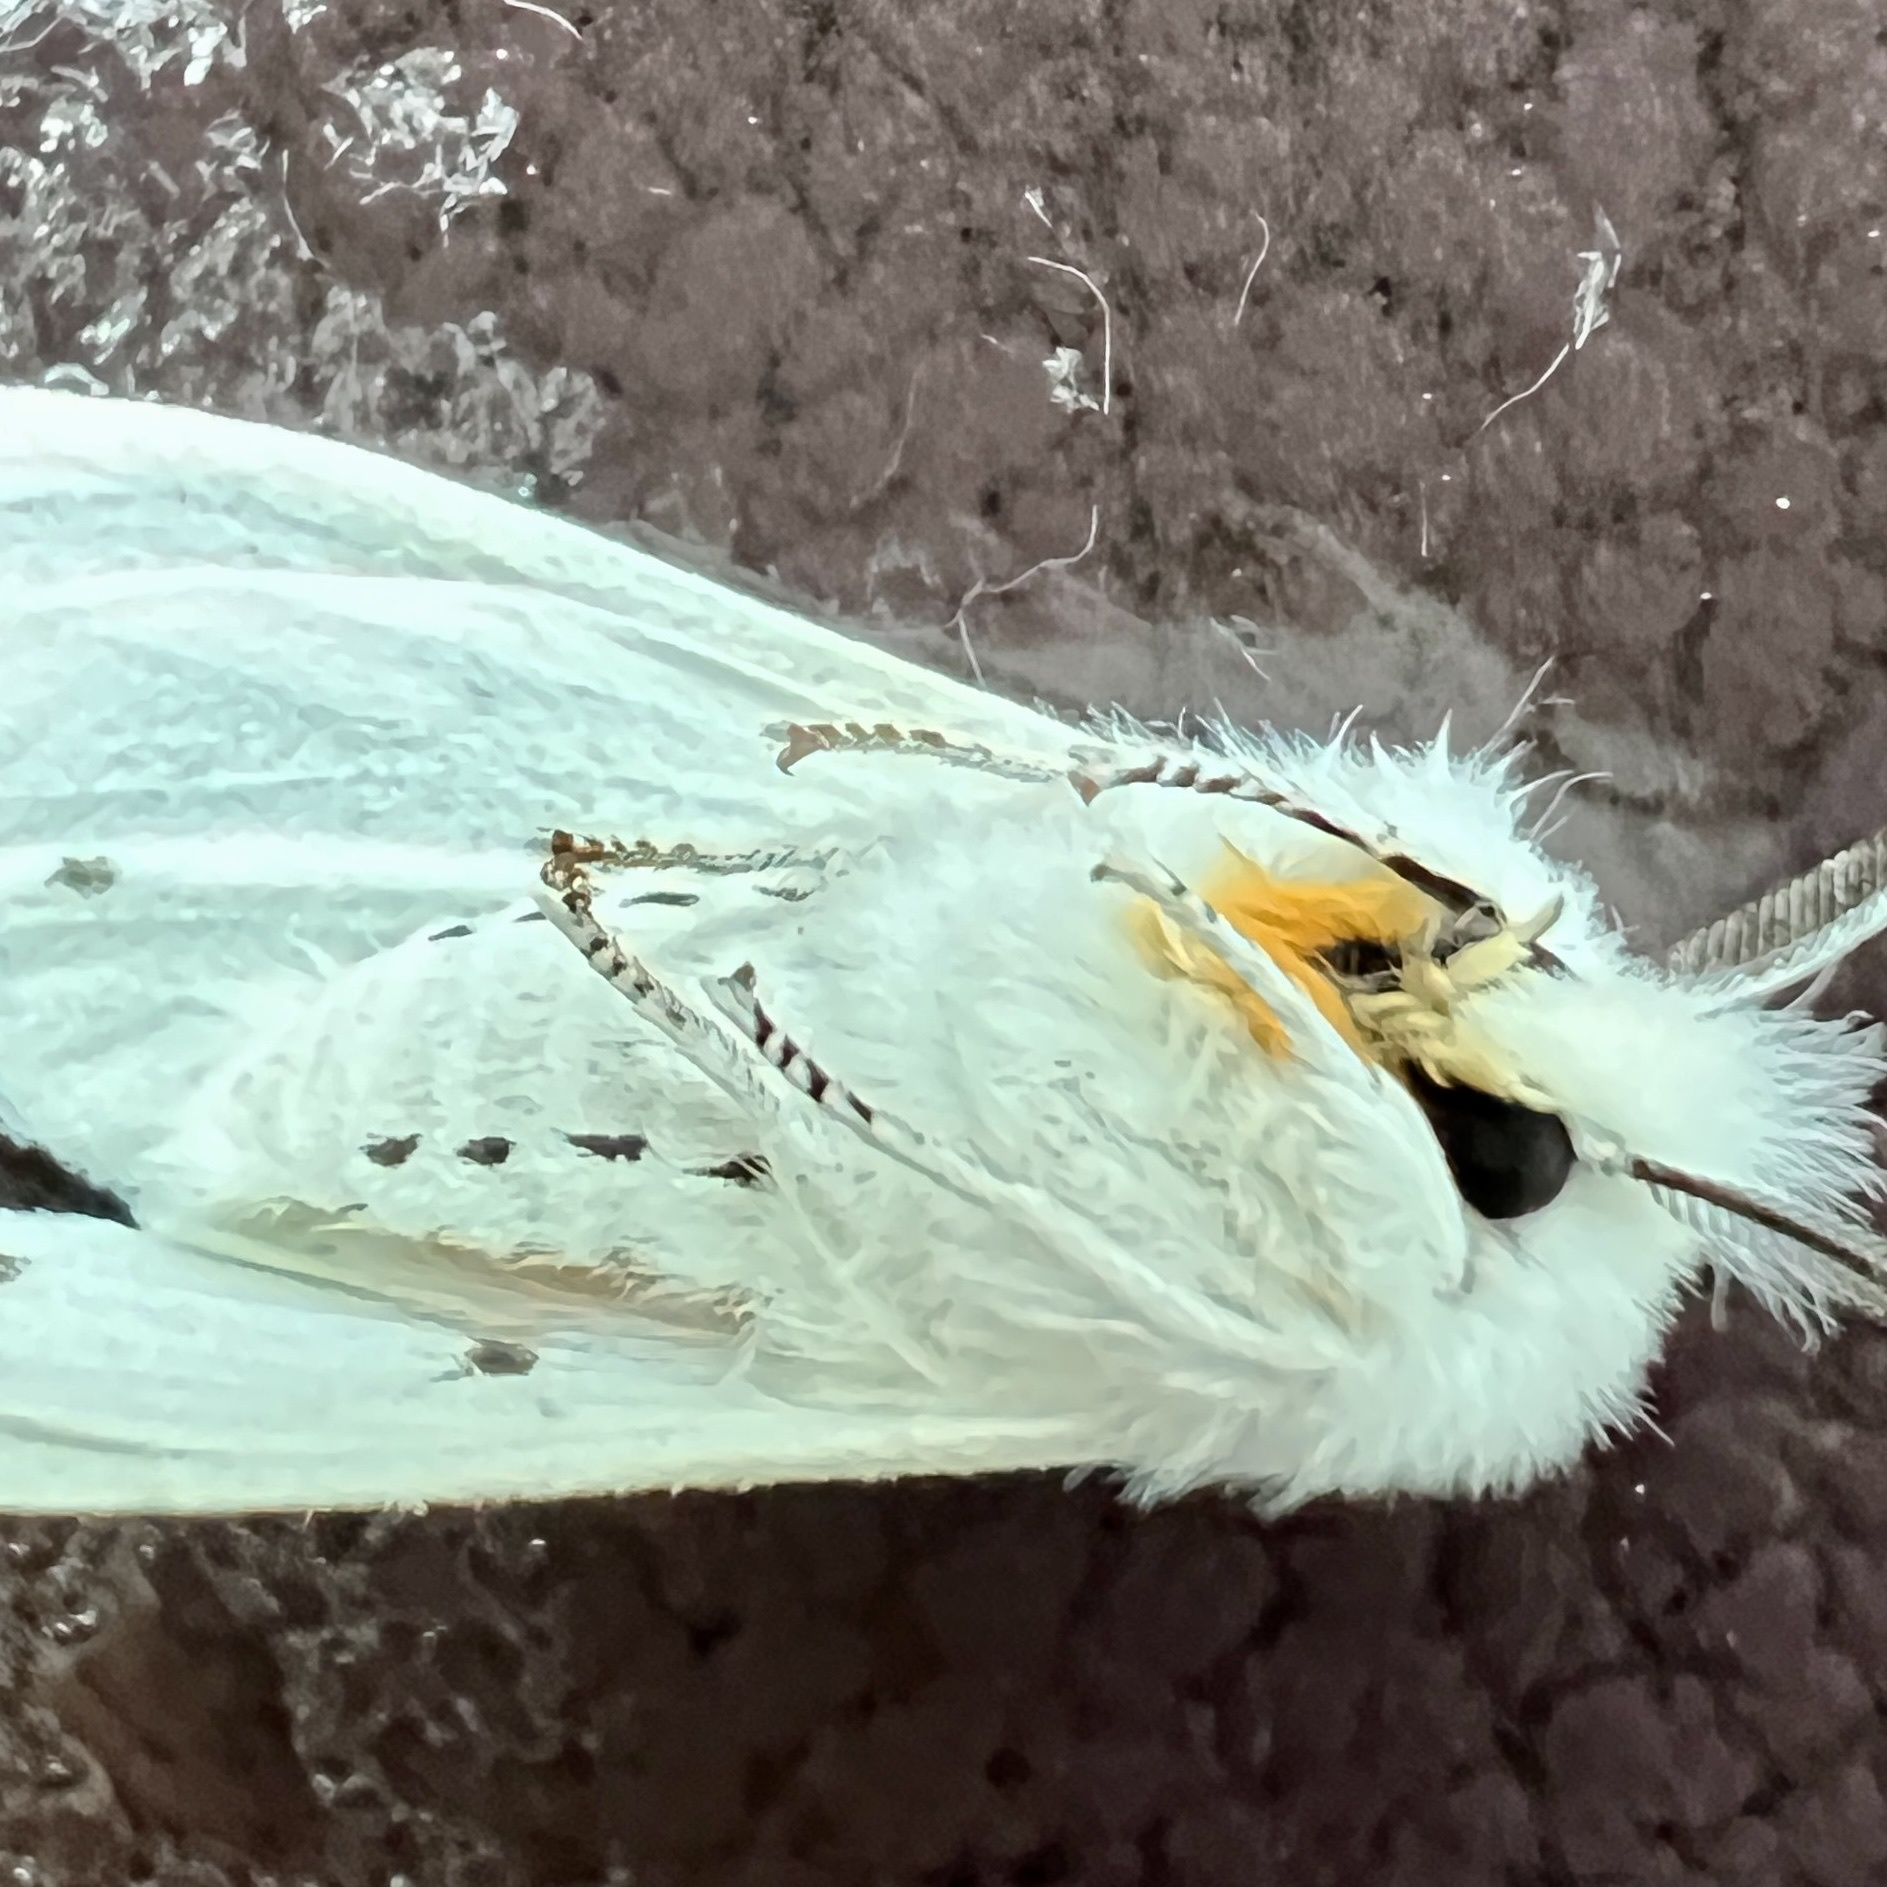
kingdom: Animalia
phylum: Arthropoda
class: Insecta
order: Lepidoptera
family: Erebidae
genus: Spilosoma
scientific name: Spilosoma virginica
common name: Virginia tiger moth
